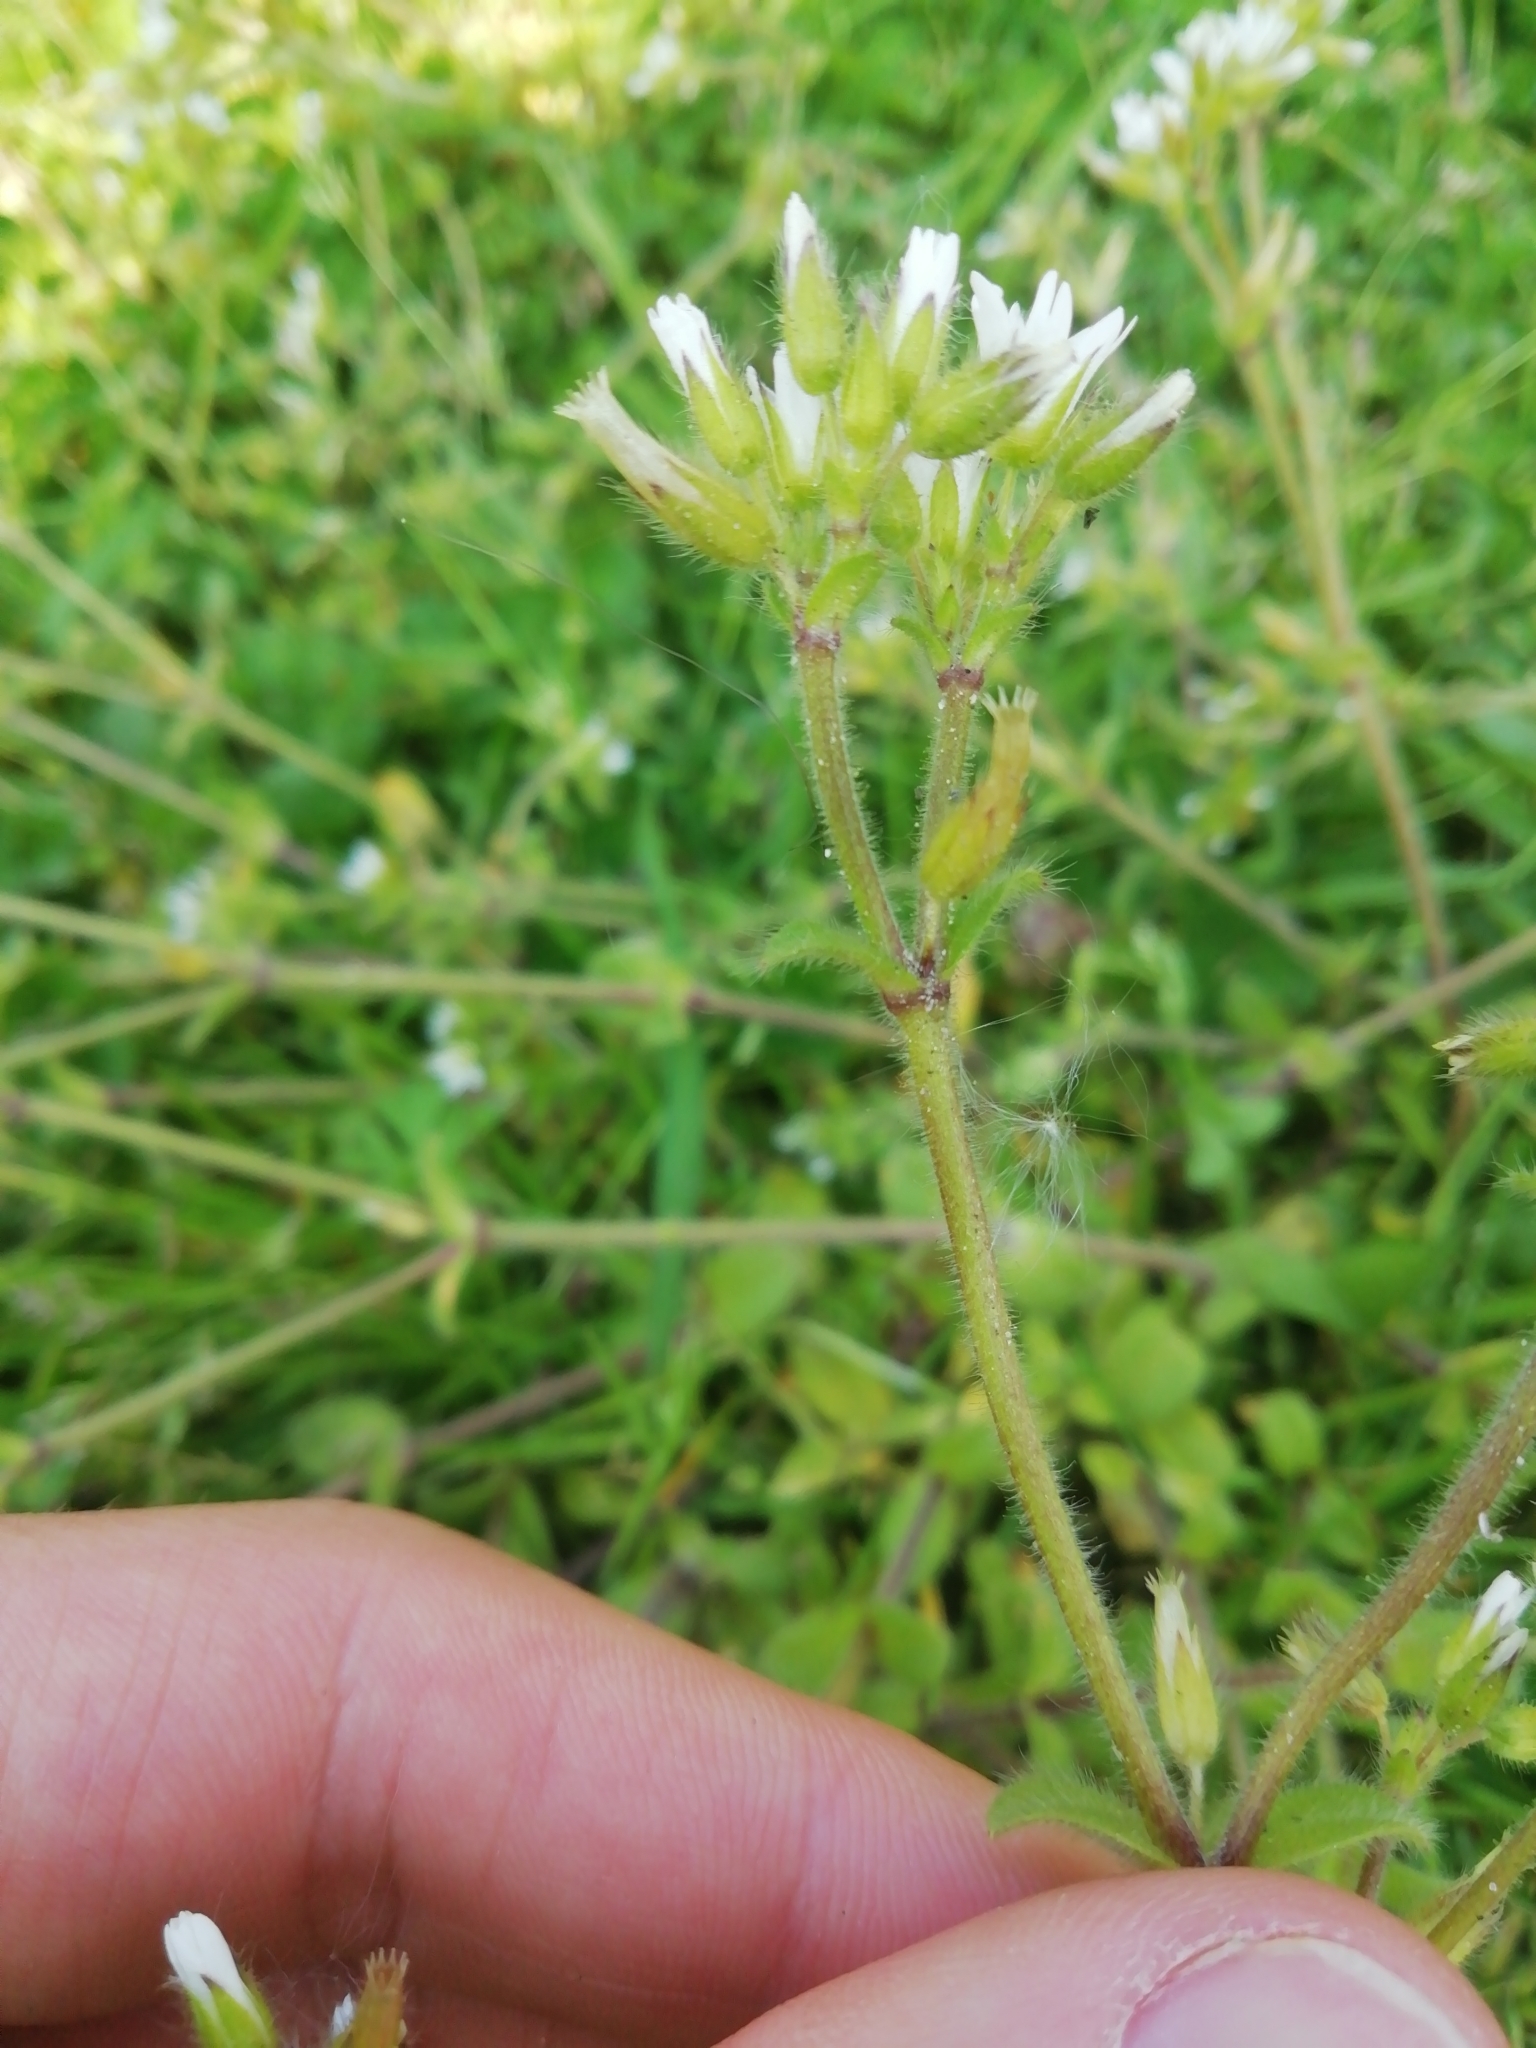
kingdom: Plantae
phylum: Tracheophyta
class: Magnoliopsida
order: Caryophyllales
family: Caryophyllaceae
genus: Cerastium
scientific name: Cerastium glomeratum
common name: Sticky chickweed
